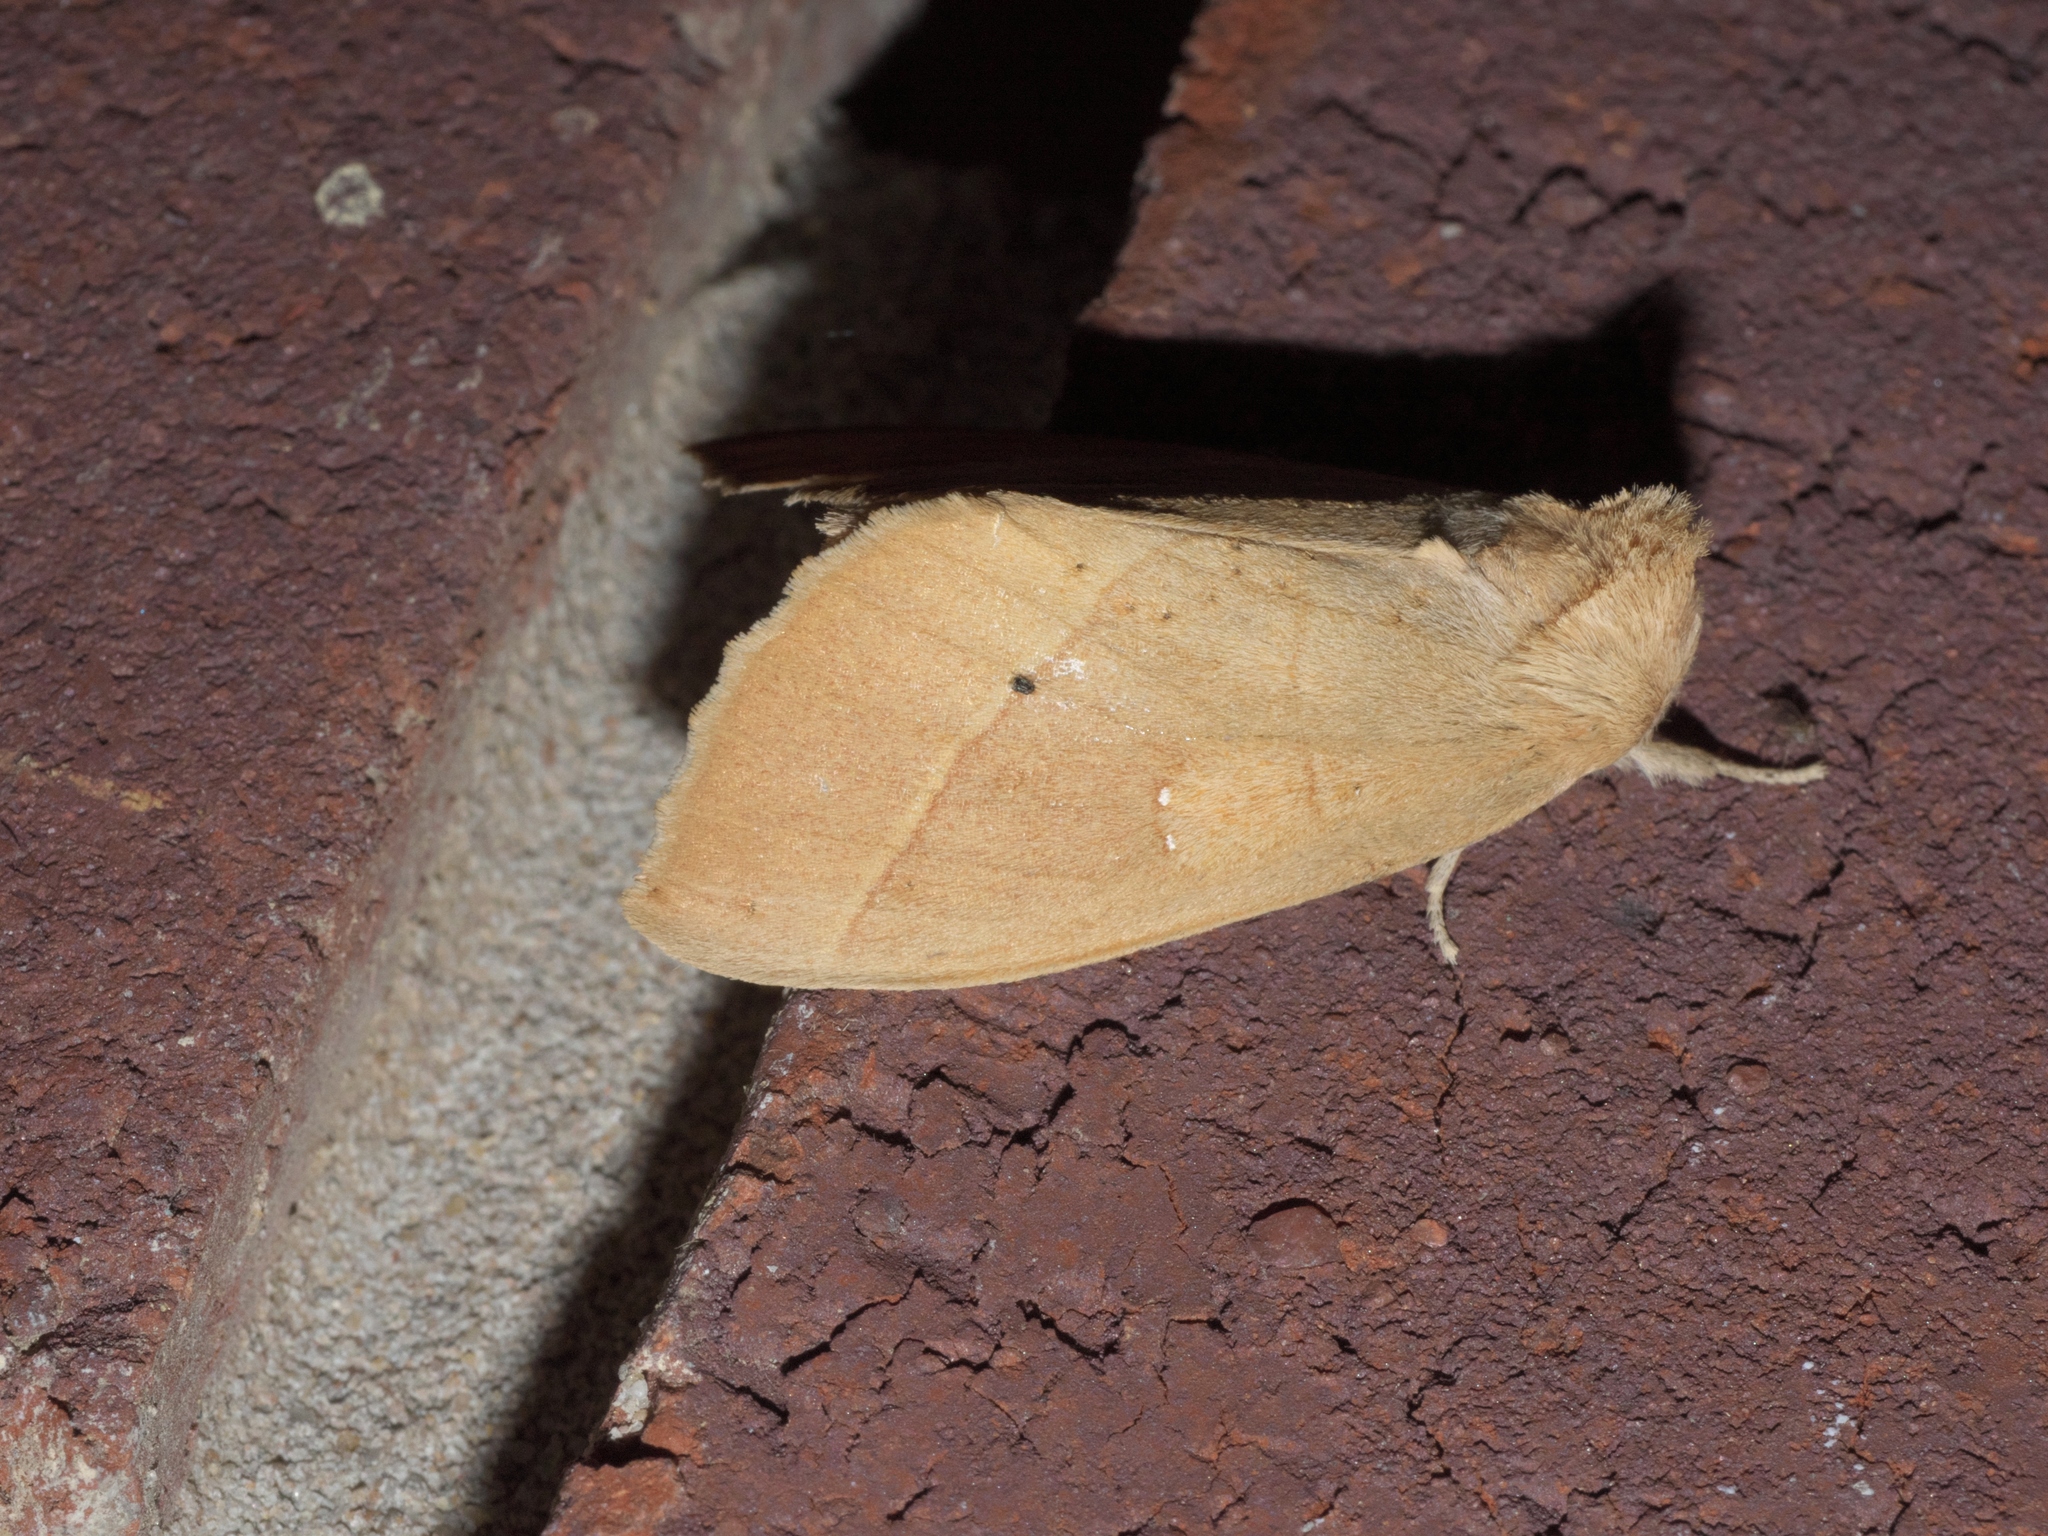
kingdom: Animalia
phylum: Arthropoda
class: Insecta
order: Lepidoptera
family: Notodontidae
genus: Nadata
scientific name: Nadata gibbosa
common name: White-dotted prominent
